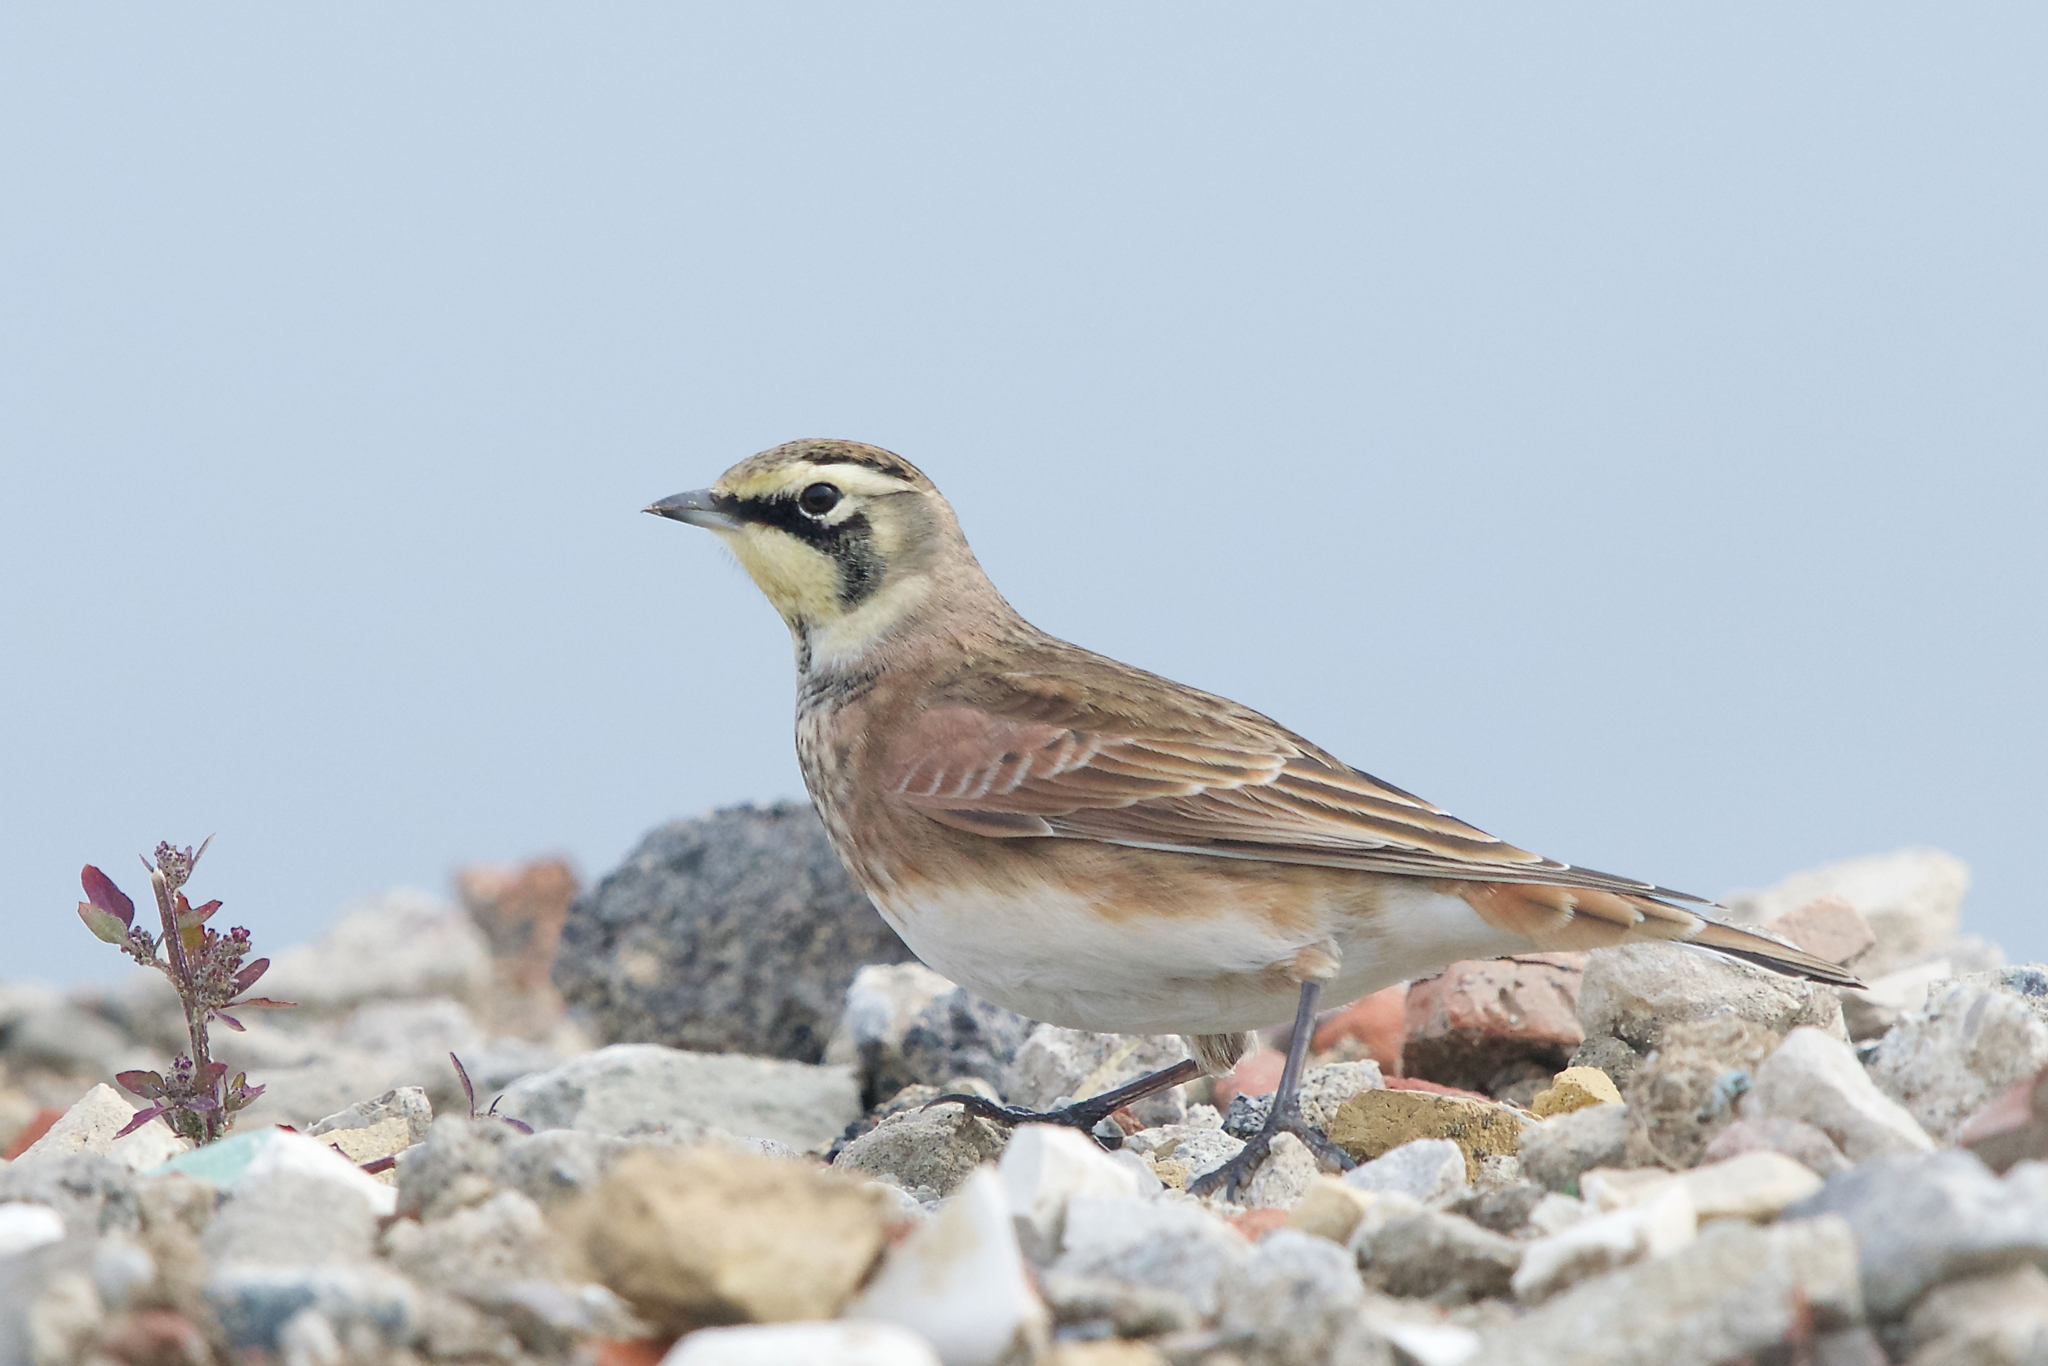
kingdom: Animalia
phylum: Chordata
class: Aves
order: Passeriformes
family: Alaudidae
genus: Eremophila
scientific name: Eremophila alpestris
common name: Horned lark
